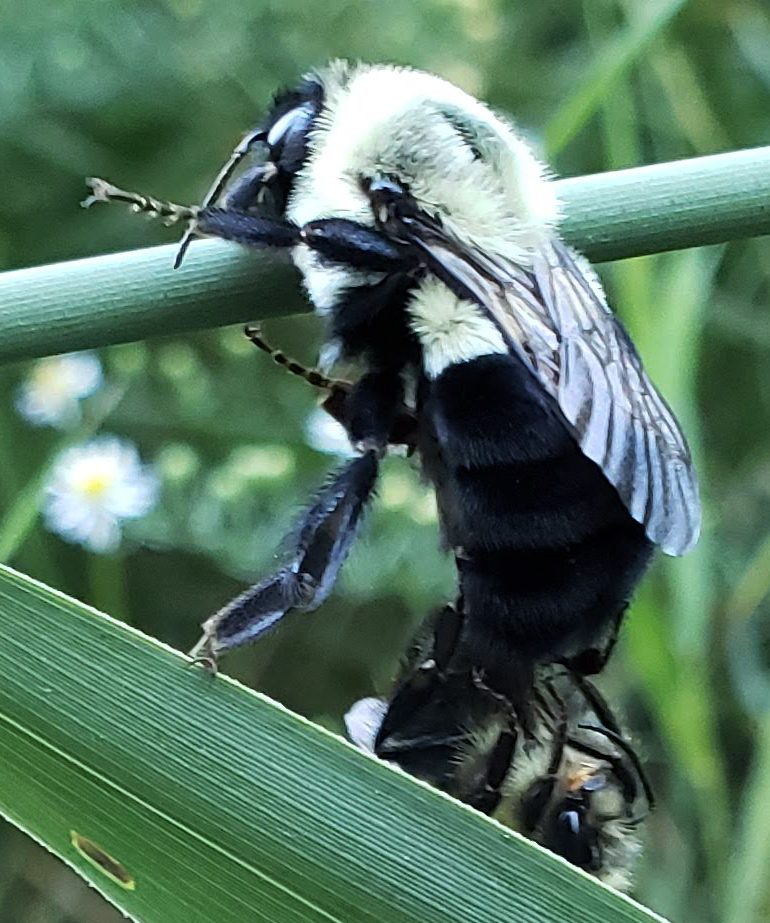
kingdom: Animalia
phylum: Arthropoda
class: Insecta
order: Hymenoptera
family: Apidae
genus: Bombus
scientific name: Bombus impatiens
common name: Common eastern bumble bee
